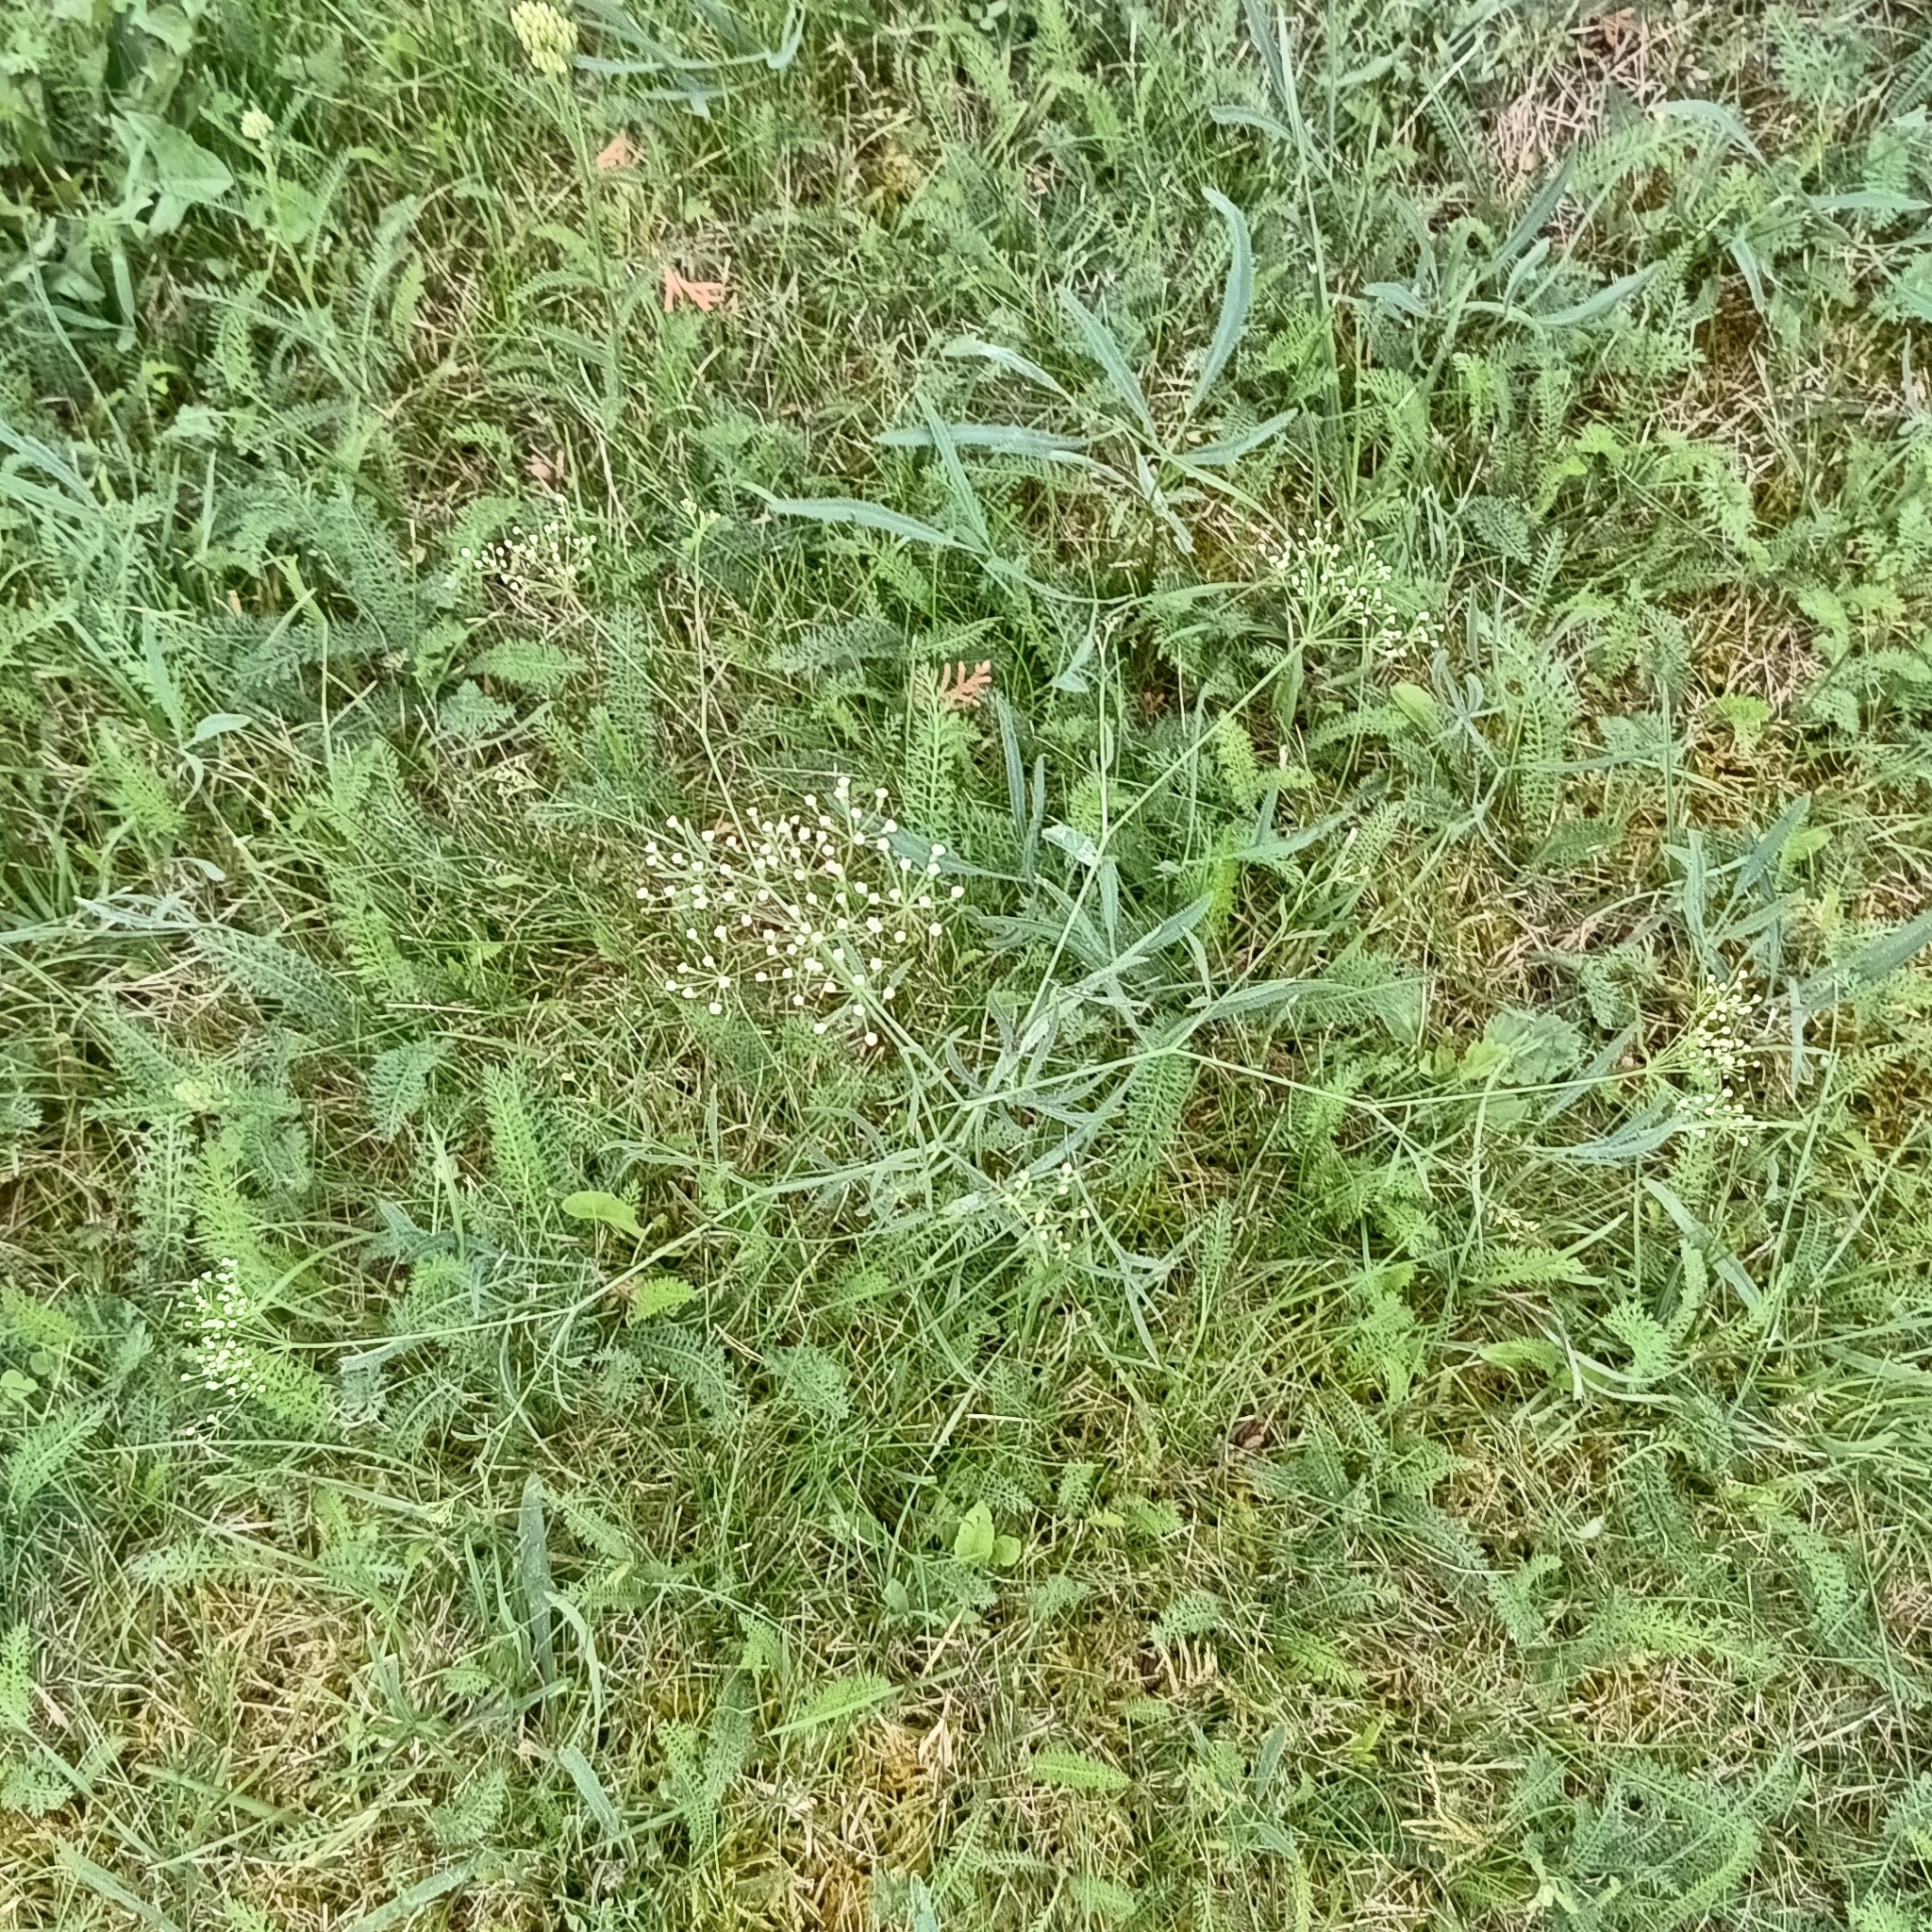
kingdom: Plantae
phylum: Tracheophyta
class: Magnoliopsida
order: Apiales
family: Apiaceae
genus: Falcaria
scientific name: Falcaria vulgaris
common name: Longleaf
